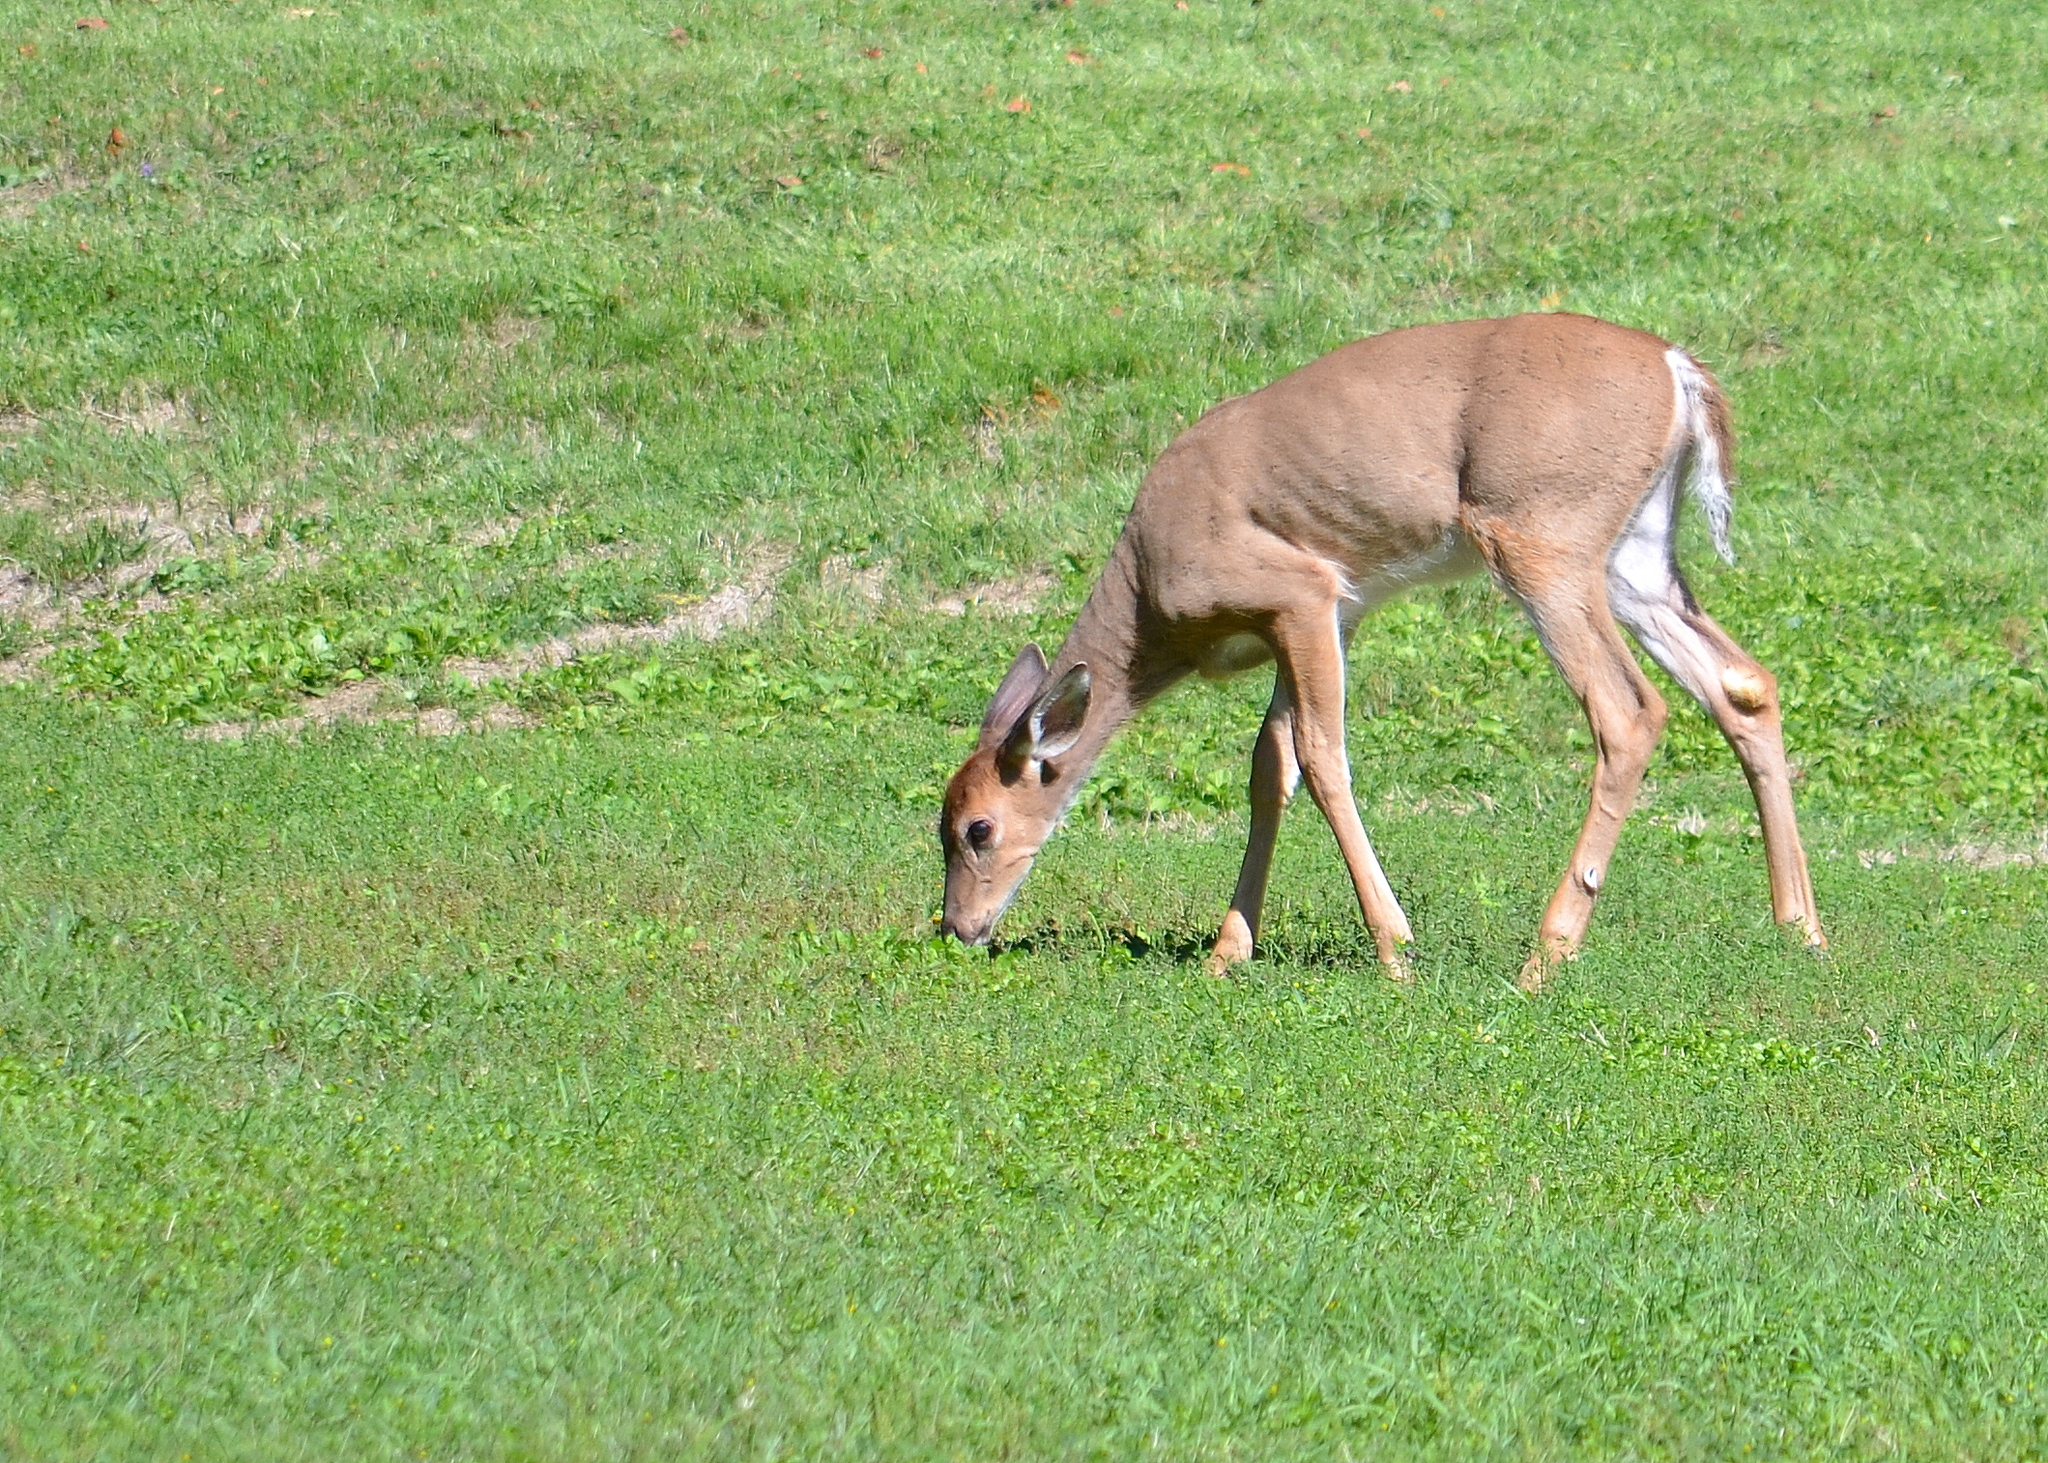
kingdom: Animalia
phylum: Chordata
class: Mammalia
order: Artiodactyla
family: Cervidae
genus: Odocoileus
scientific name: Odocoileus virginianus
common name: White-tailed deer
